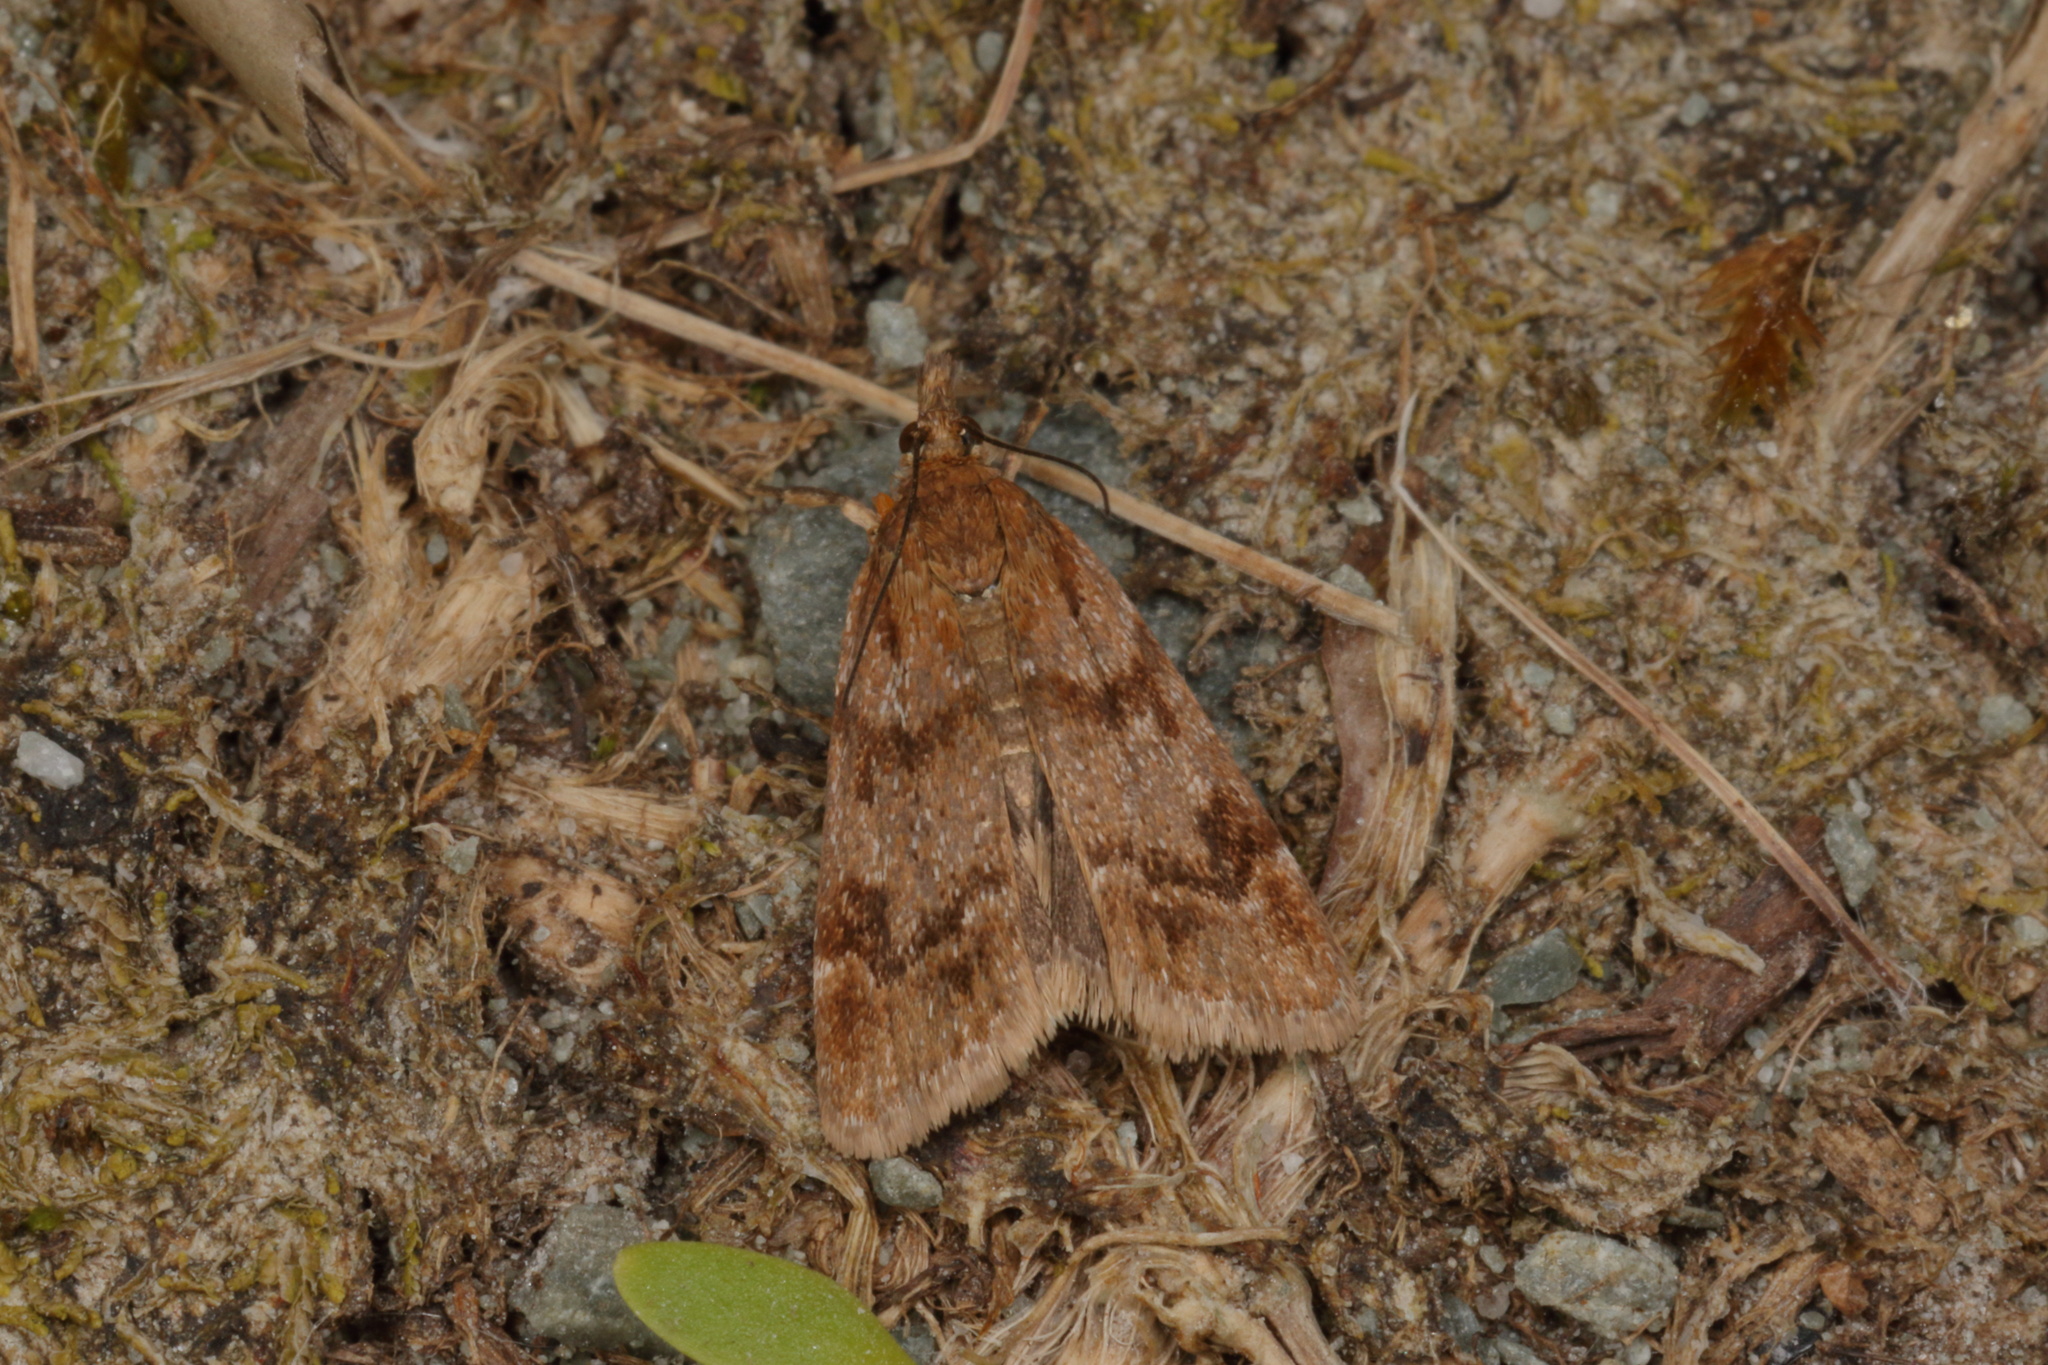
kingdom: Animalia
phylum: Arthropoda
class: Insecta
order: Lepidoptera
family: Crambidae
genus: Scoparia
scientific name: Scoparia ergatis
